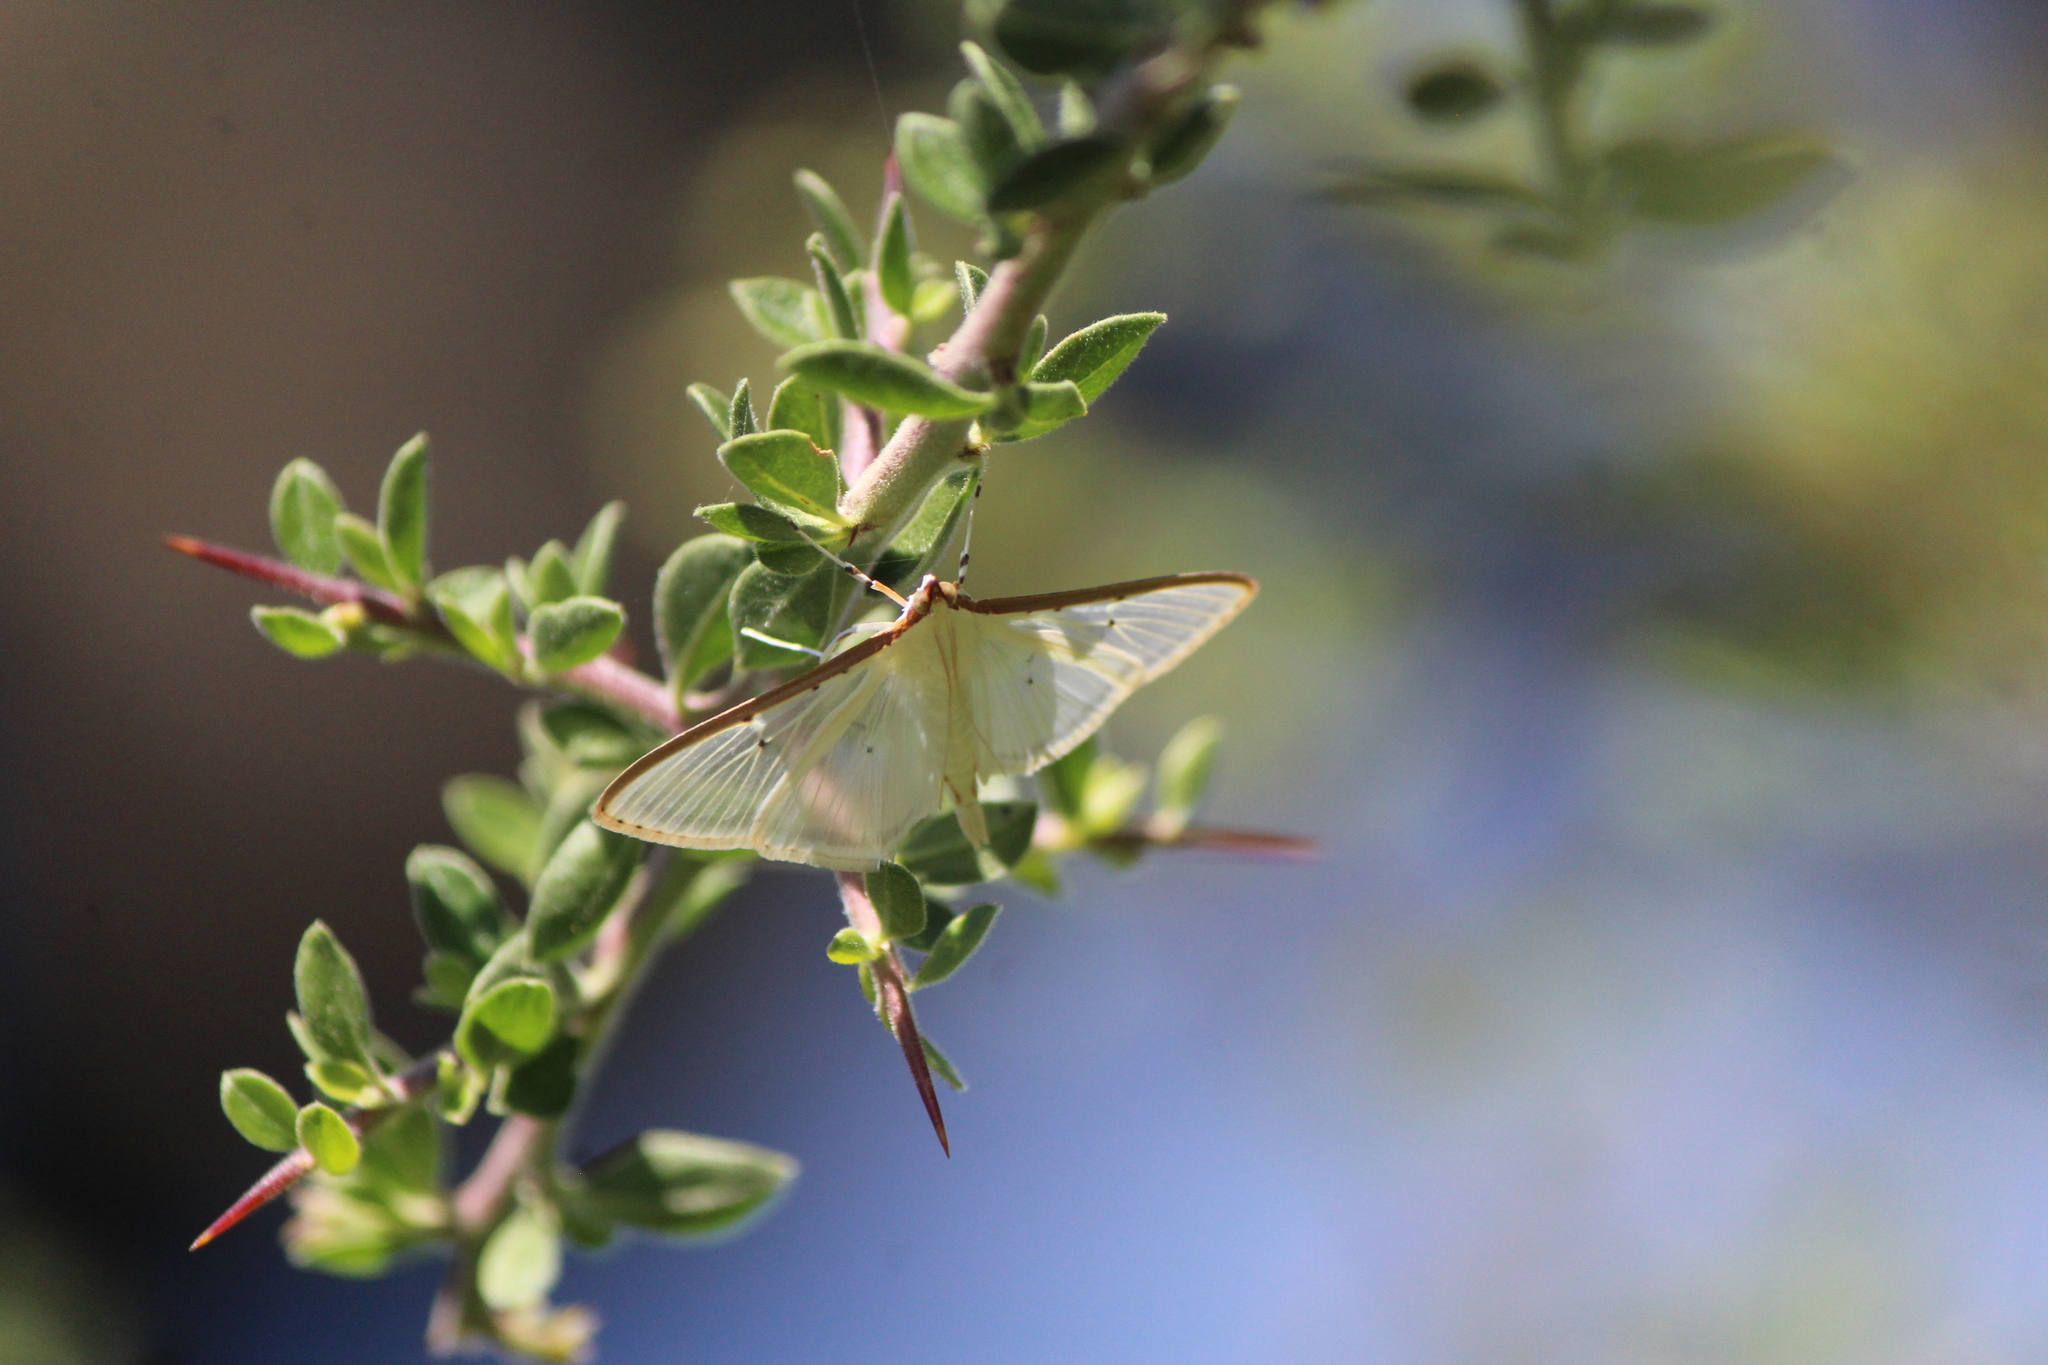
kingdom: Animalia
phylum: Arthropoda
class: Insecta
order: Lepidoptera
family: Crambidae
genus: Palpita
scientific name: Palpita quadristigmalis
